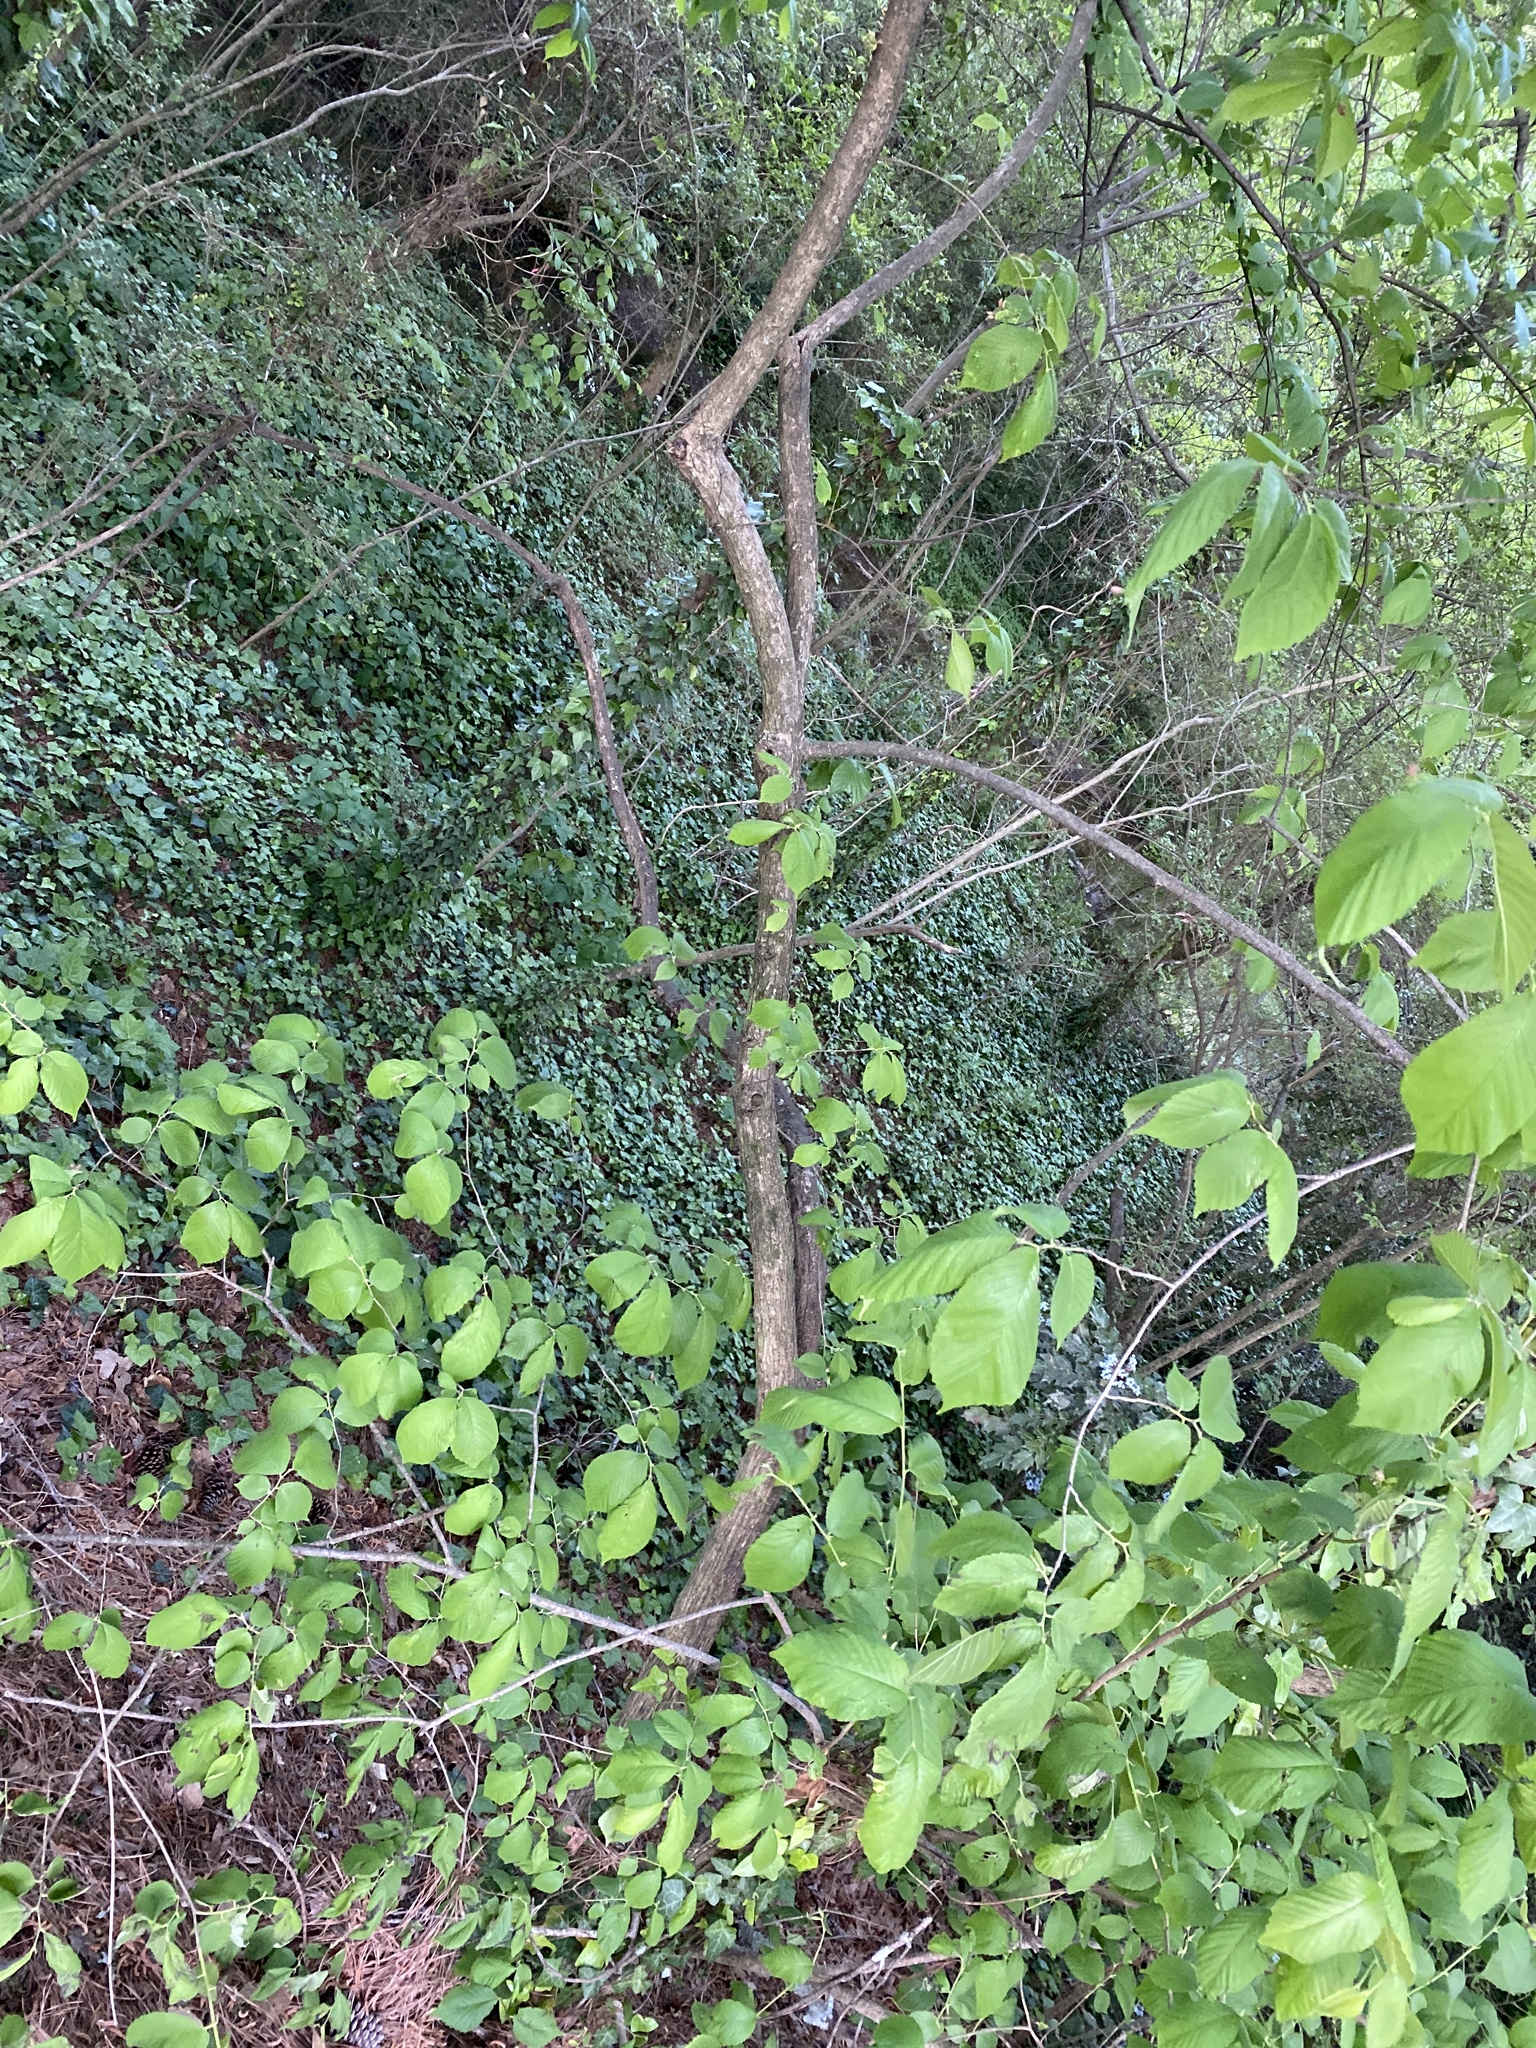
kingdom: Plantae
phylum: Tracheophyta
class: Magnoliopsida
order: Rosales
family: Ulmaceae
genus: Ulmus
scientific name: Ulmus rubra
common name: Slippery elm
